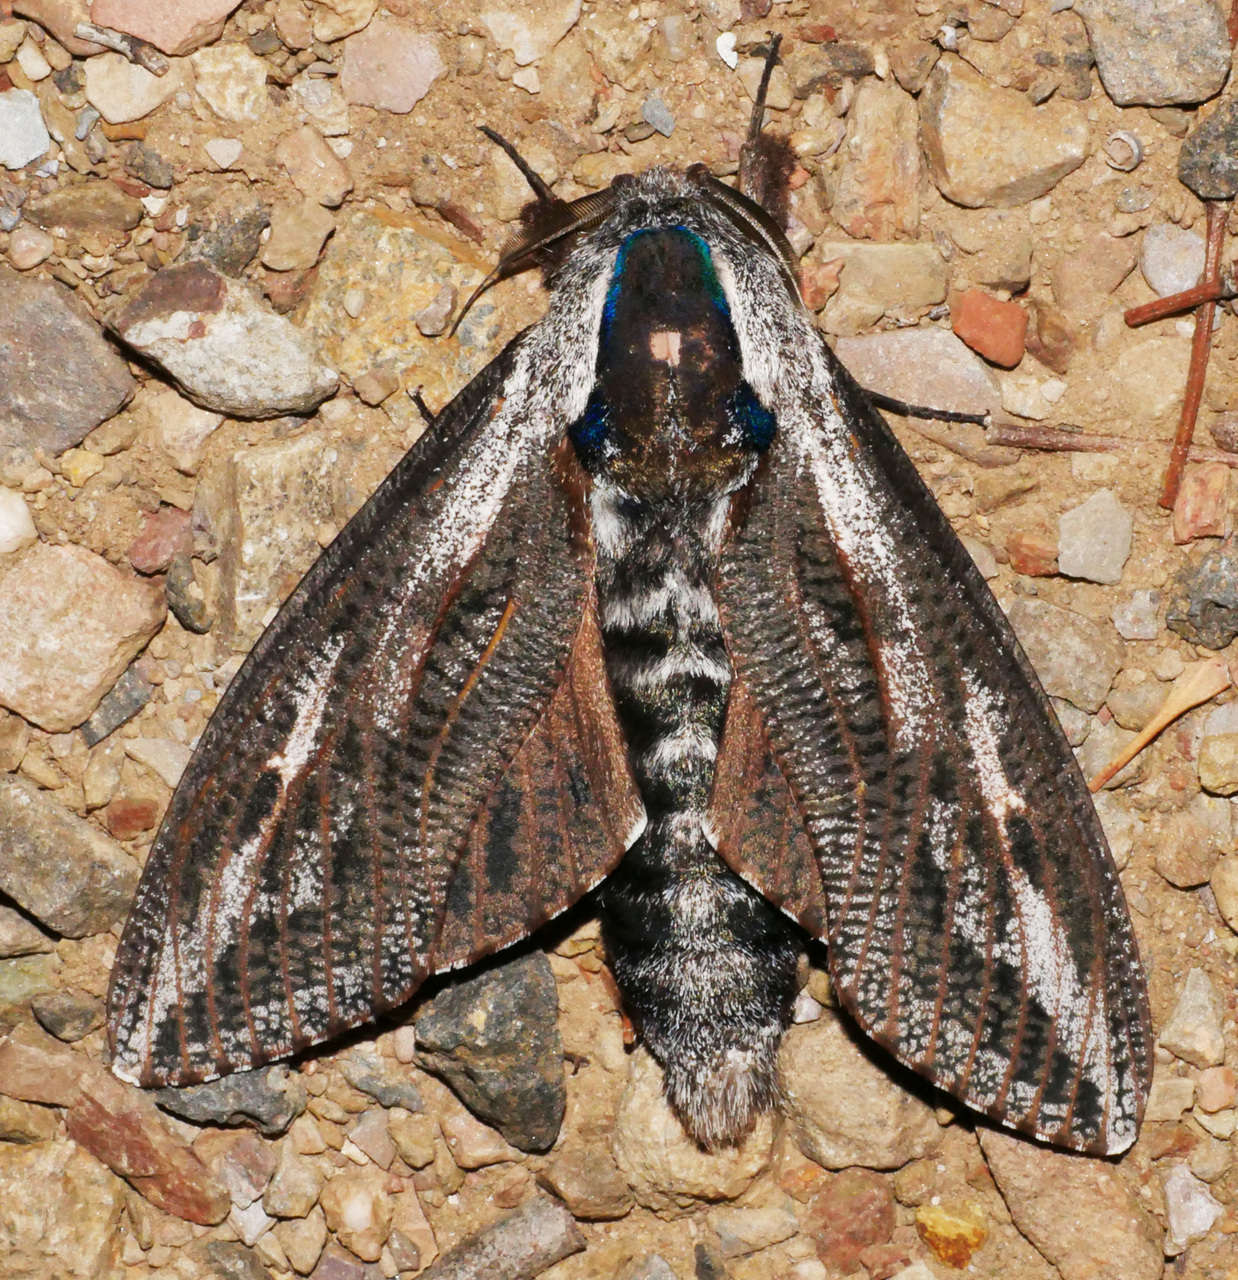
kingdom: Animalia
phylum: Arthropoda
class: Insecta
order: Lepidoptera
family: Cossidae
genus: Endoxyla
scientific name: Endoxyla encalypti
